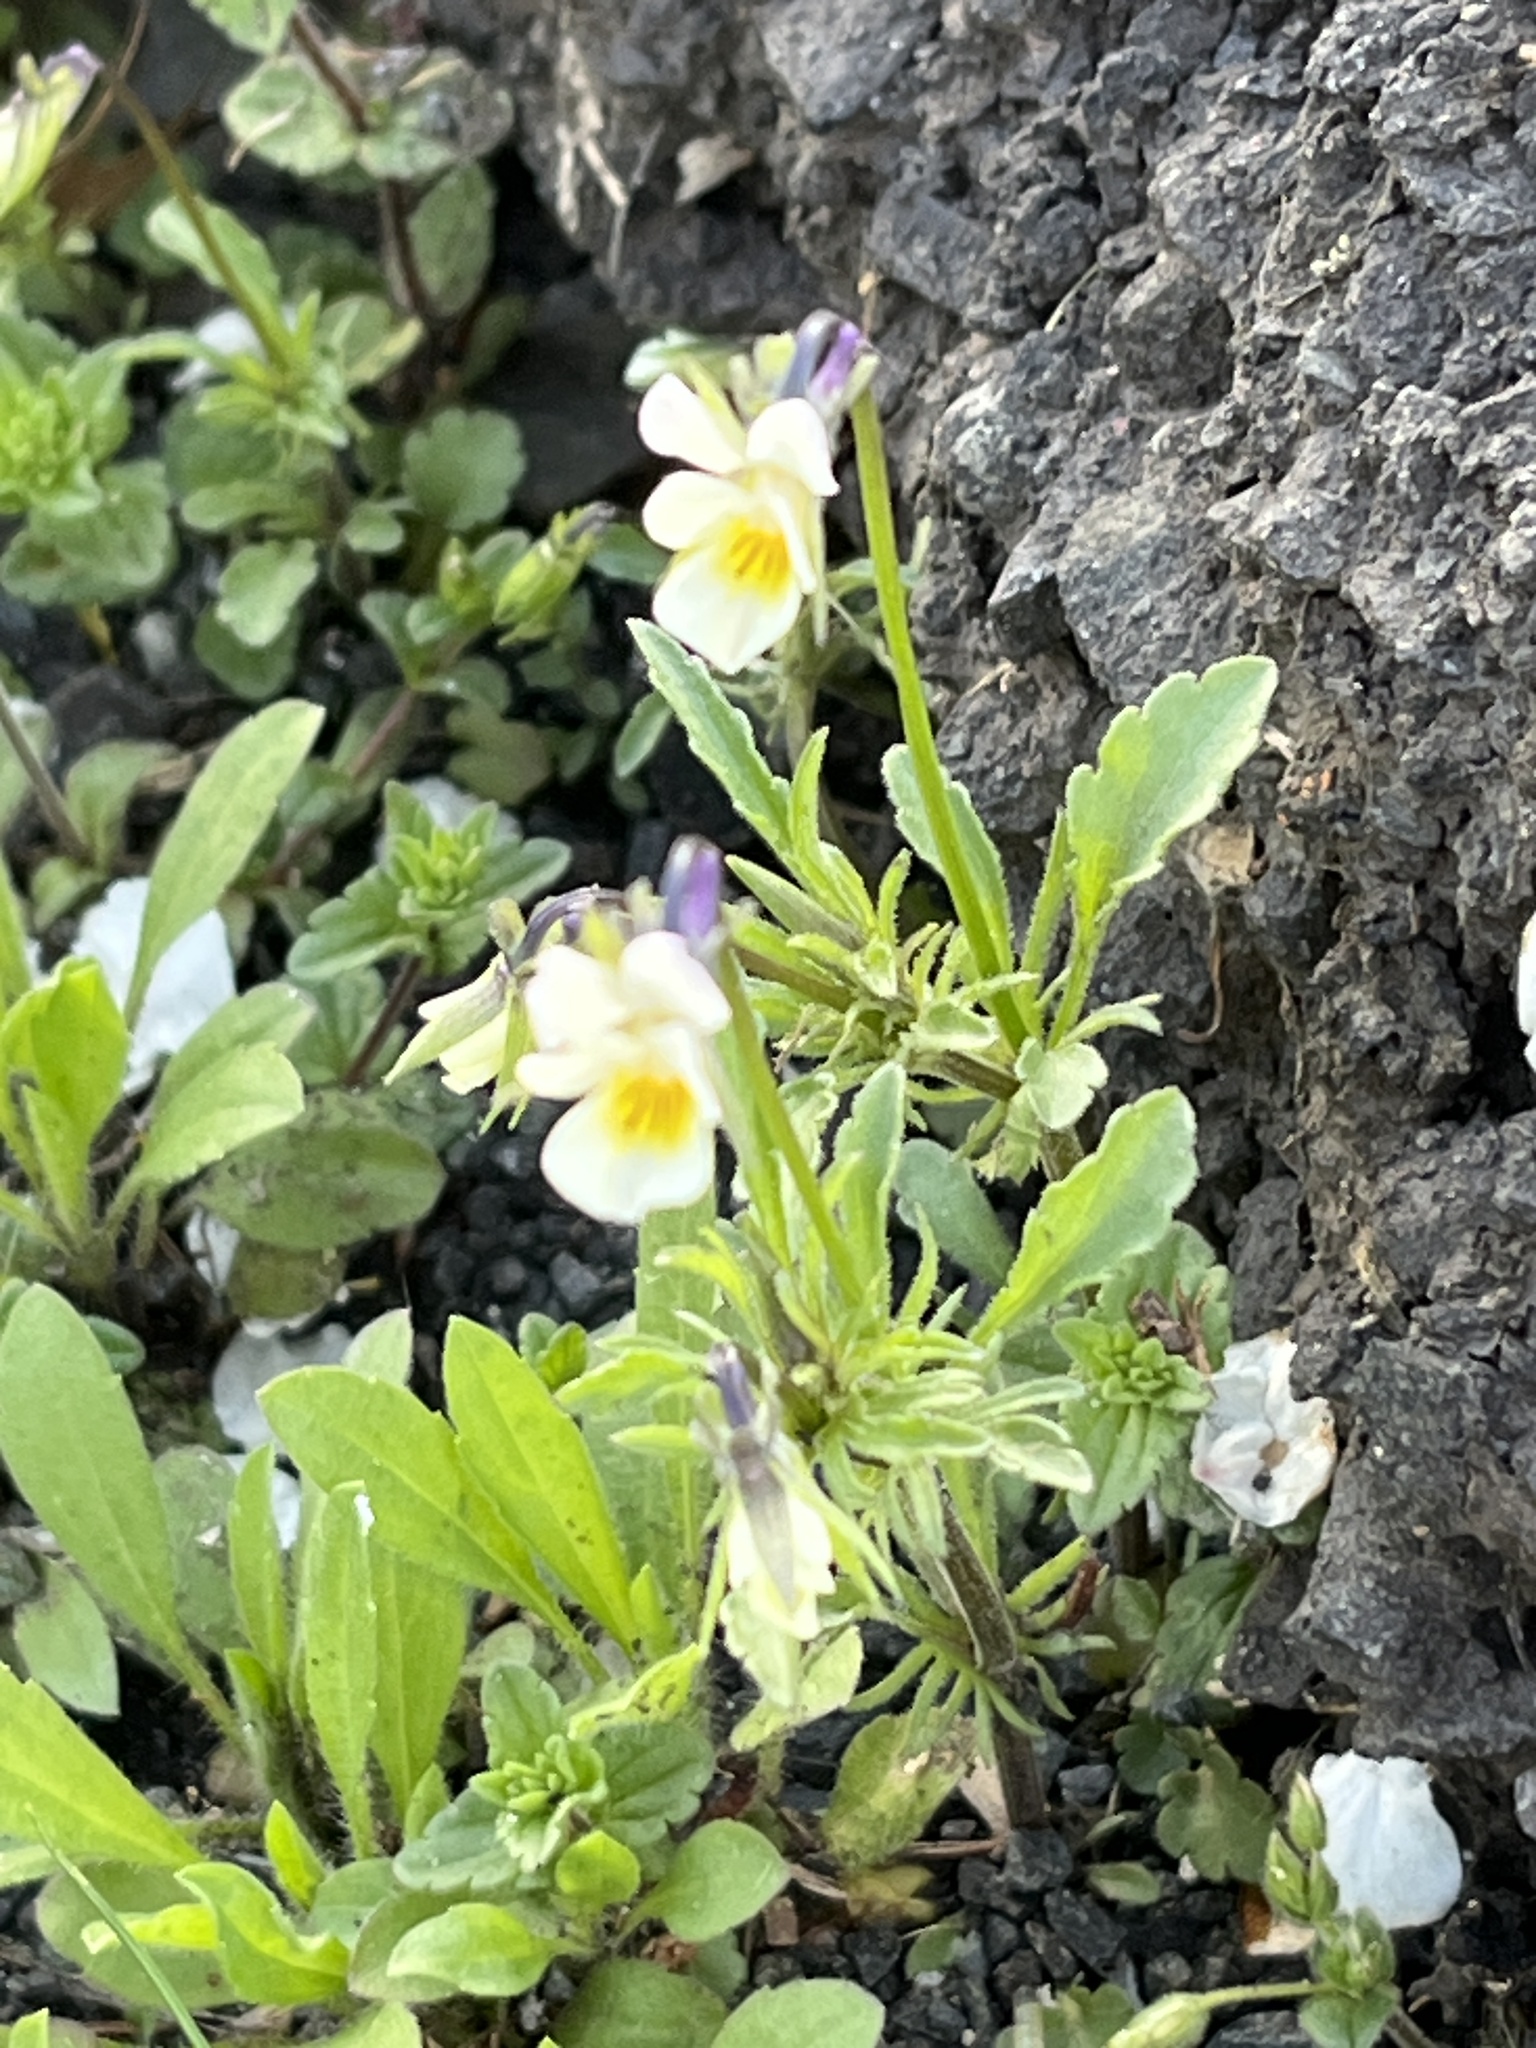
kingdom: Plantae
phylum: Tracheophyta
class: Magnoliopsida
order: Malpighiales
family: Violaceae
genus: Viola
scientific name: Viola arvensis
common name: Field pansy
